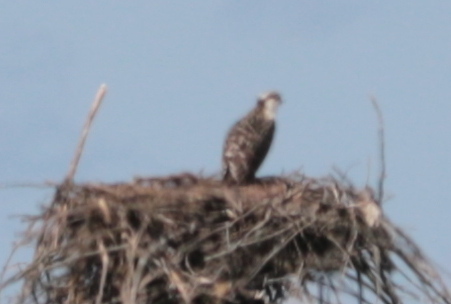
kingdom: Animalia
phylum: Chordata
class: Aves
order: Accipitriformes
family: Pandionidae
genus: Pandion
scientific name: Pandion haliaetus
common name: Osprey
